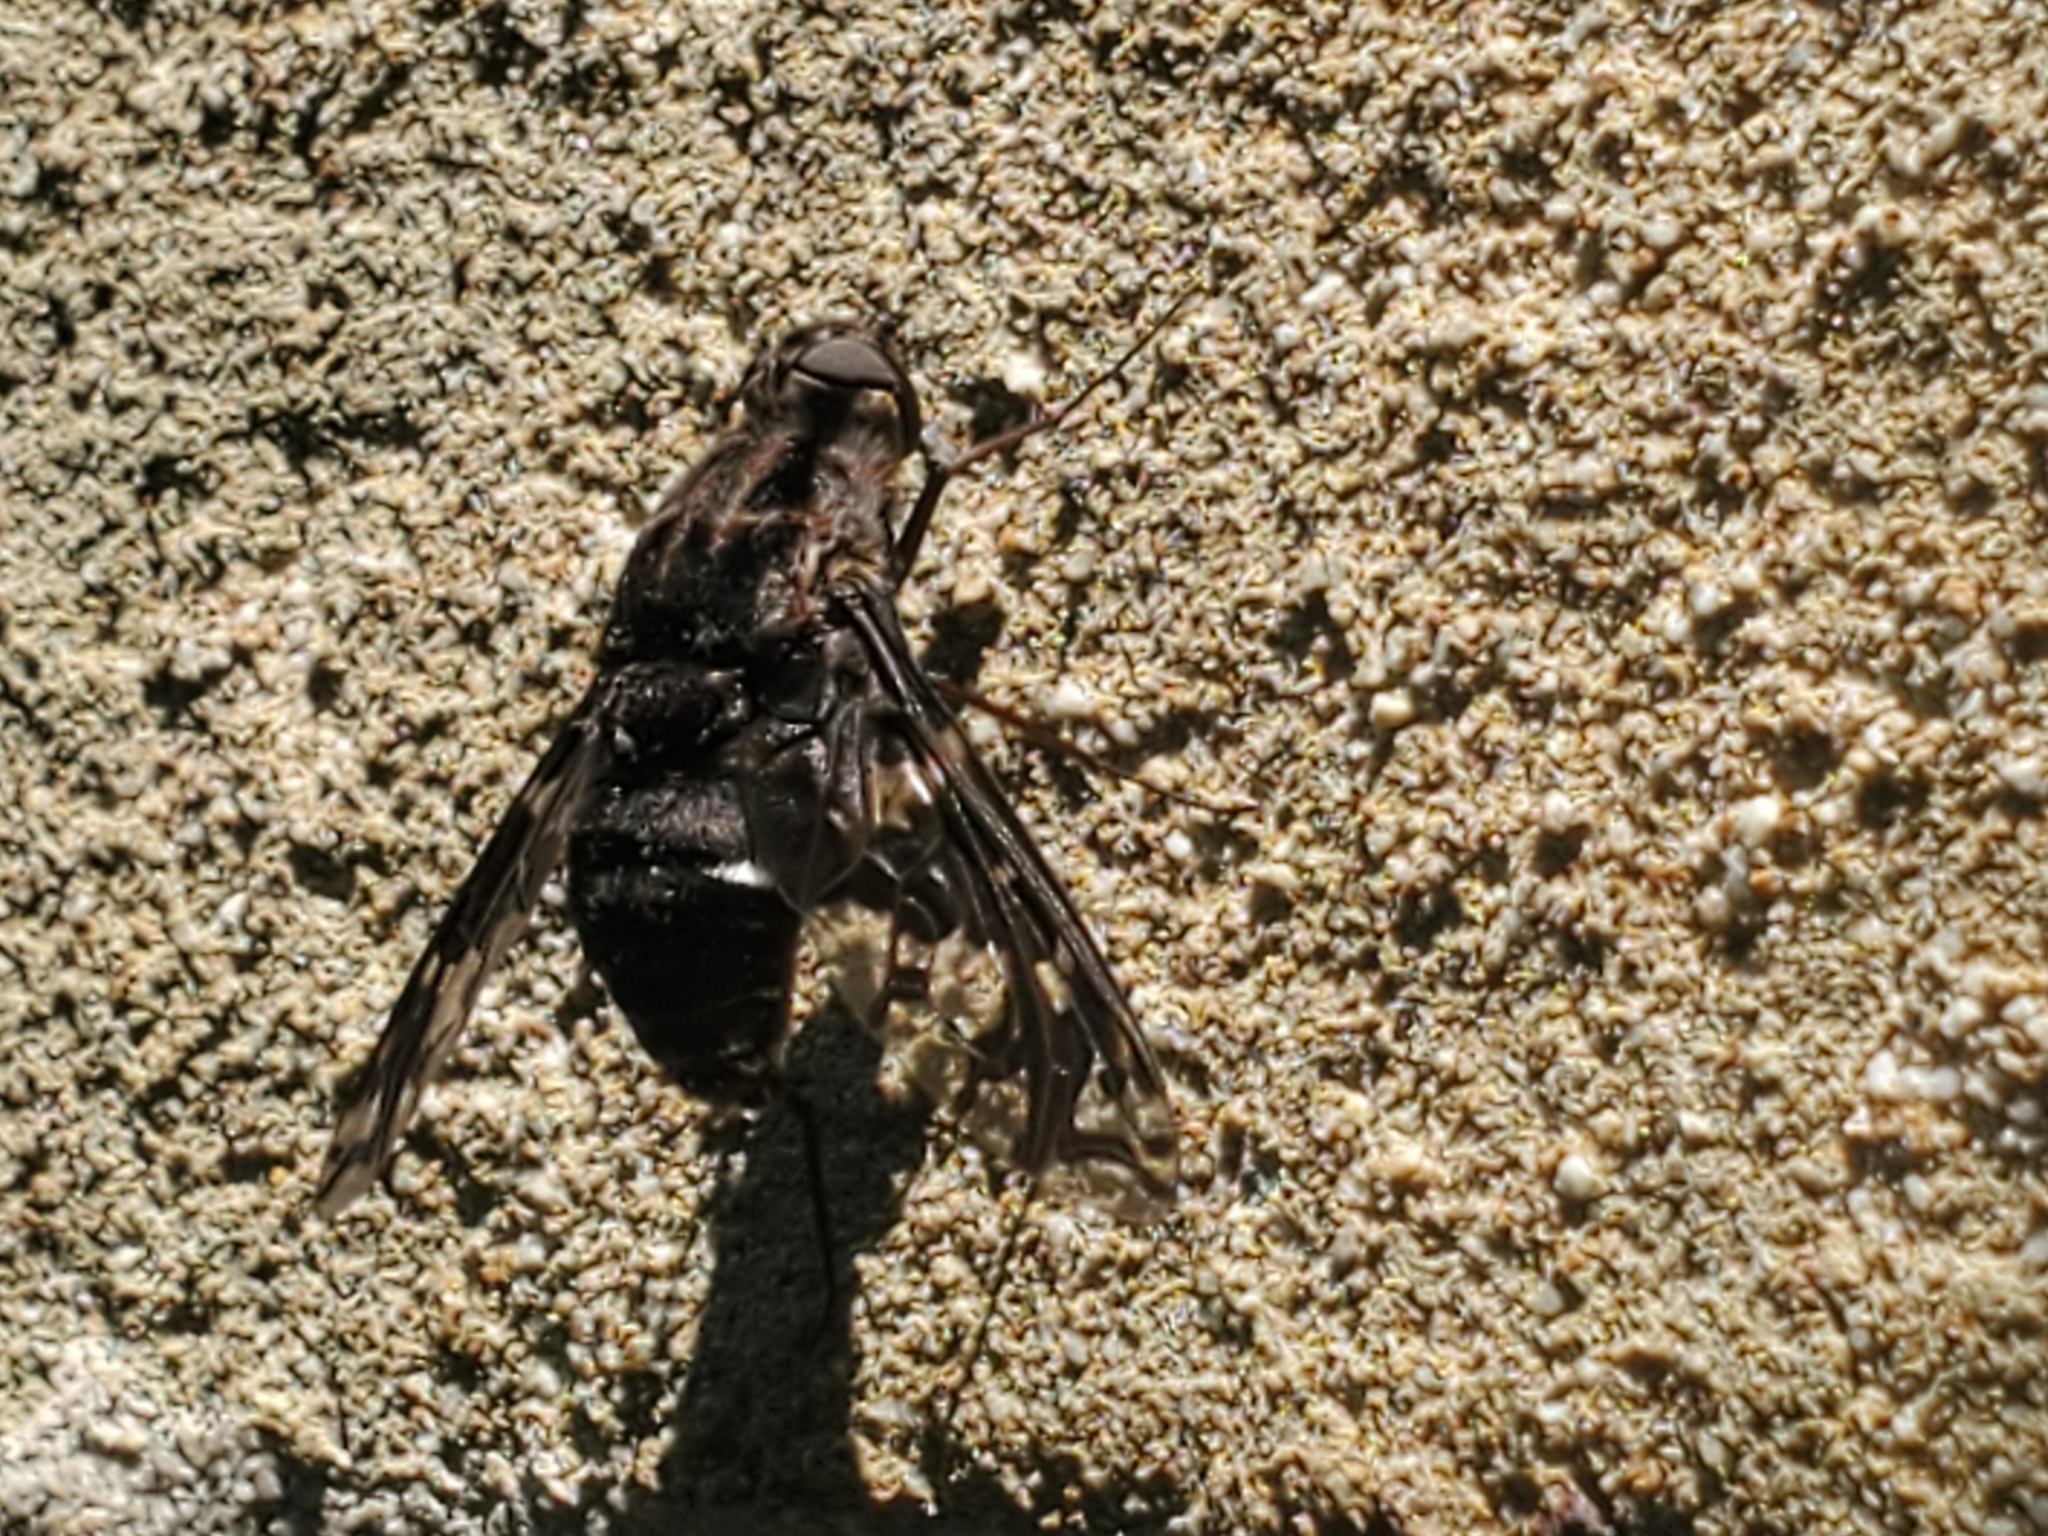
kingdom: Animalia
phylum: Arthropoda
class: Insecta
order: Diptera
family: Bombyliidae
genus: Xenox
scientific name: Xenox tigrinus
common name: Tiger bee fly
